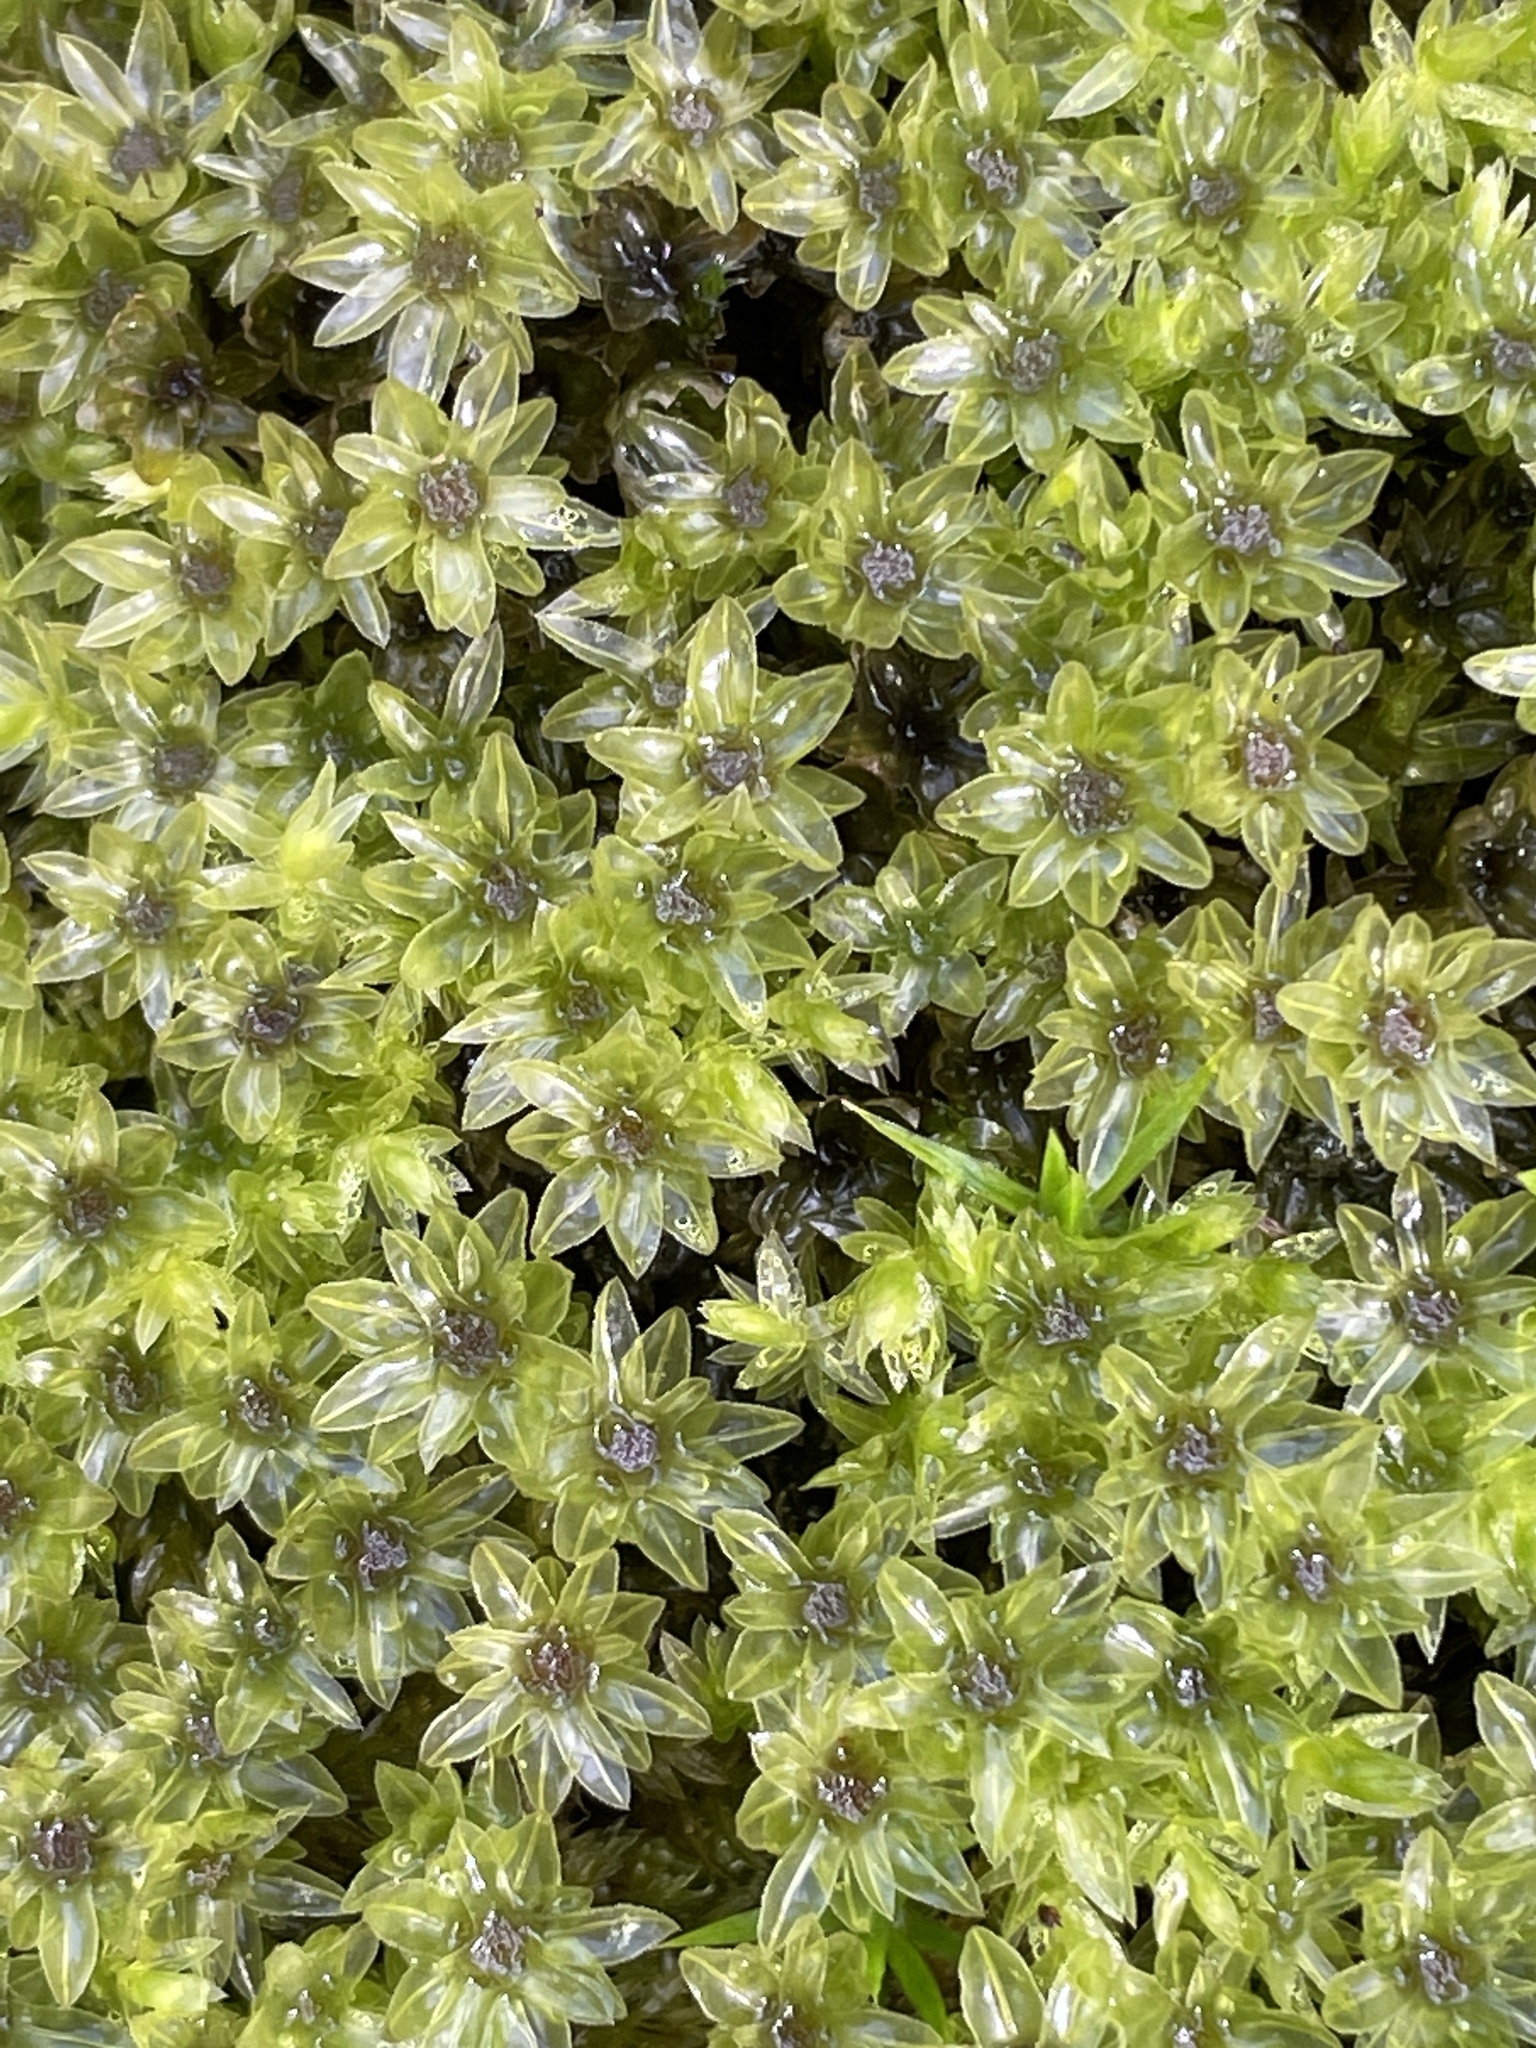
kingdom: Plantae
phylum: Bryophyta
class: Bryopsida
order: Bryales
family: Mniaceae
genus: Mnium
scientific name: Mnium hornum
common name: Swan's-neck leafy moss
